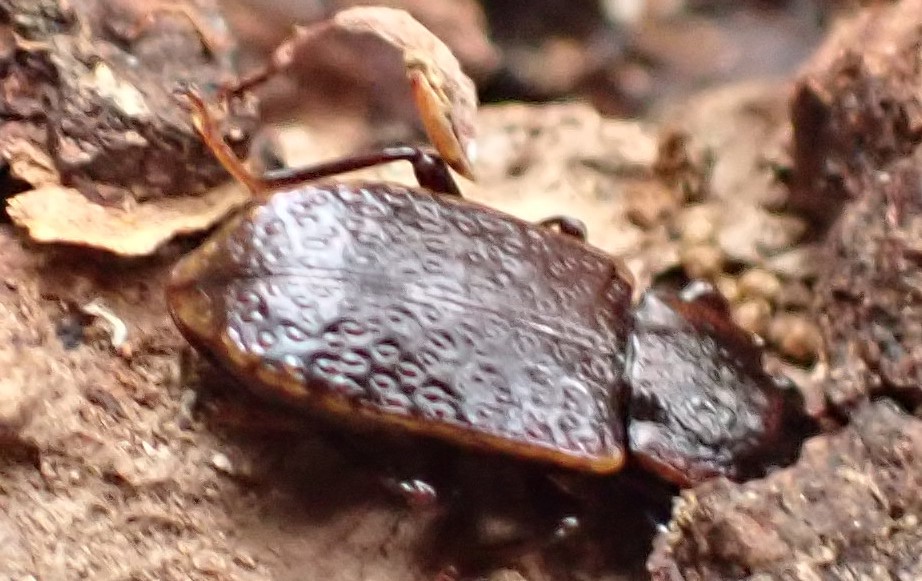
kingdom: Animalia
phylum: Arthropoda
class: Insecta
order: Coleoptera
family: Tenebrionidae
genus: Coripera
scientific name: Coripera
